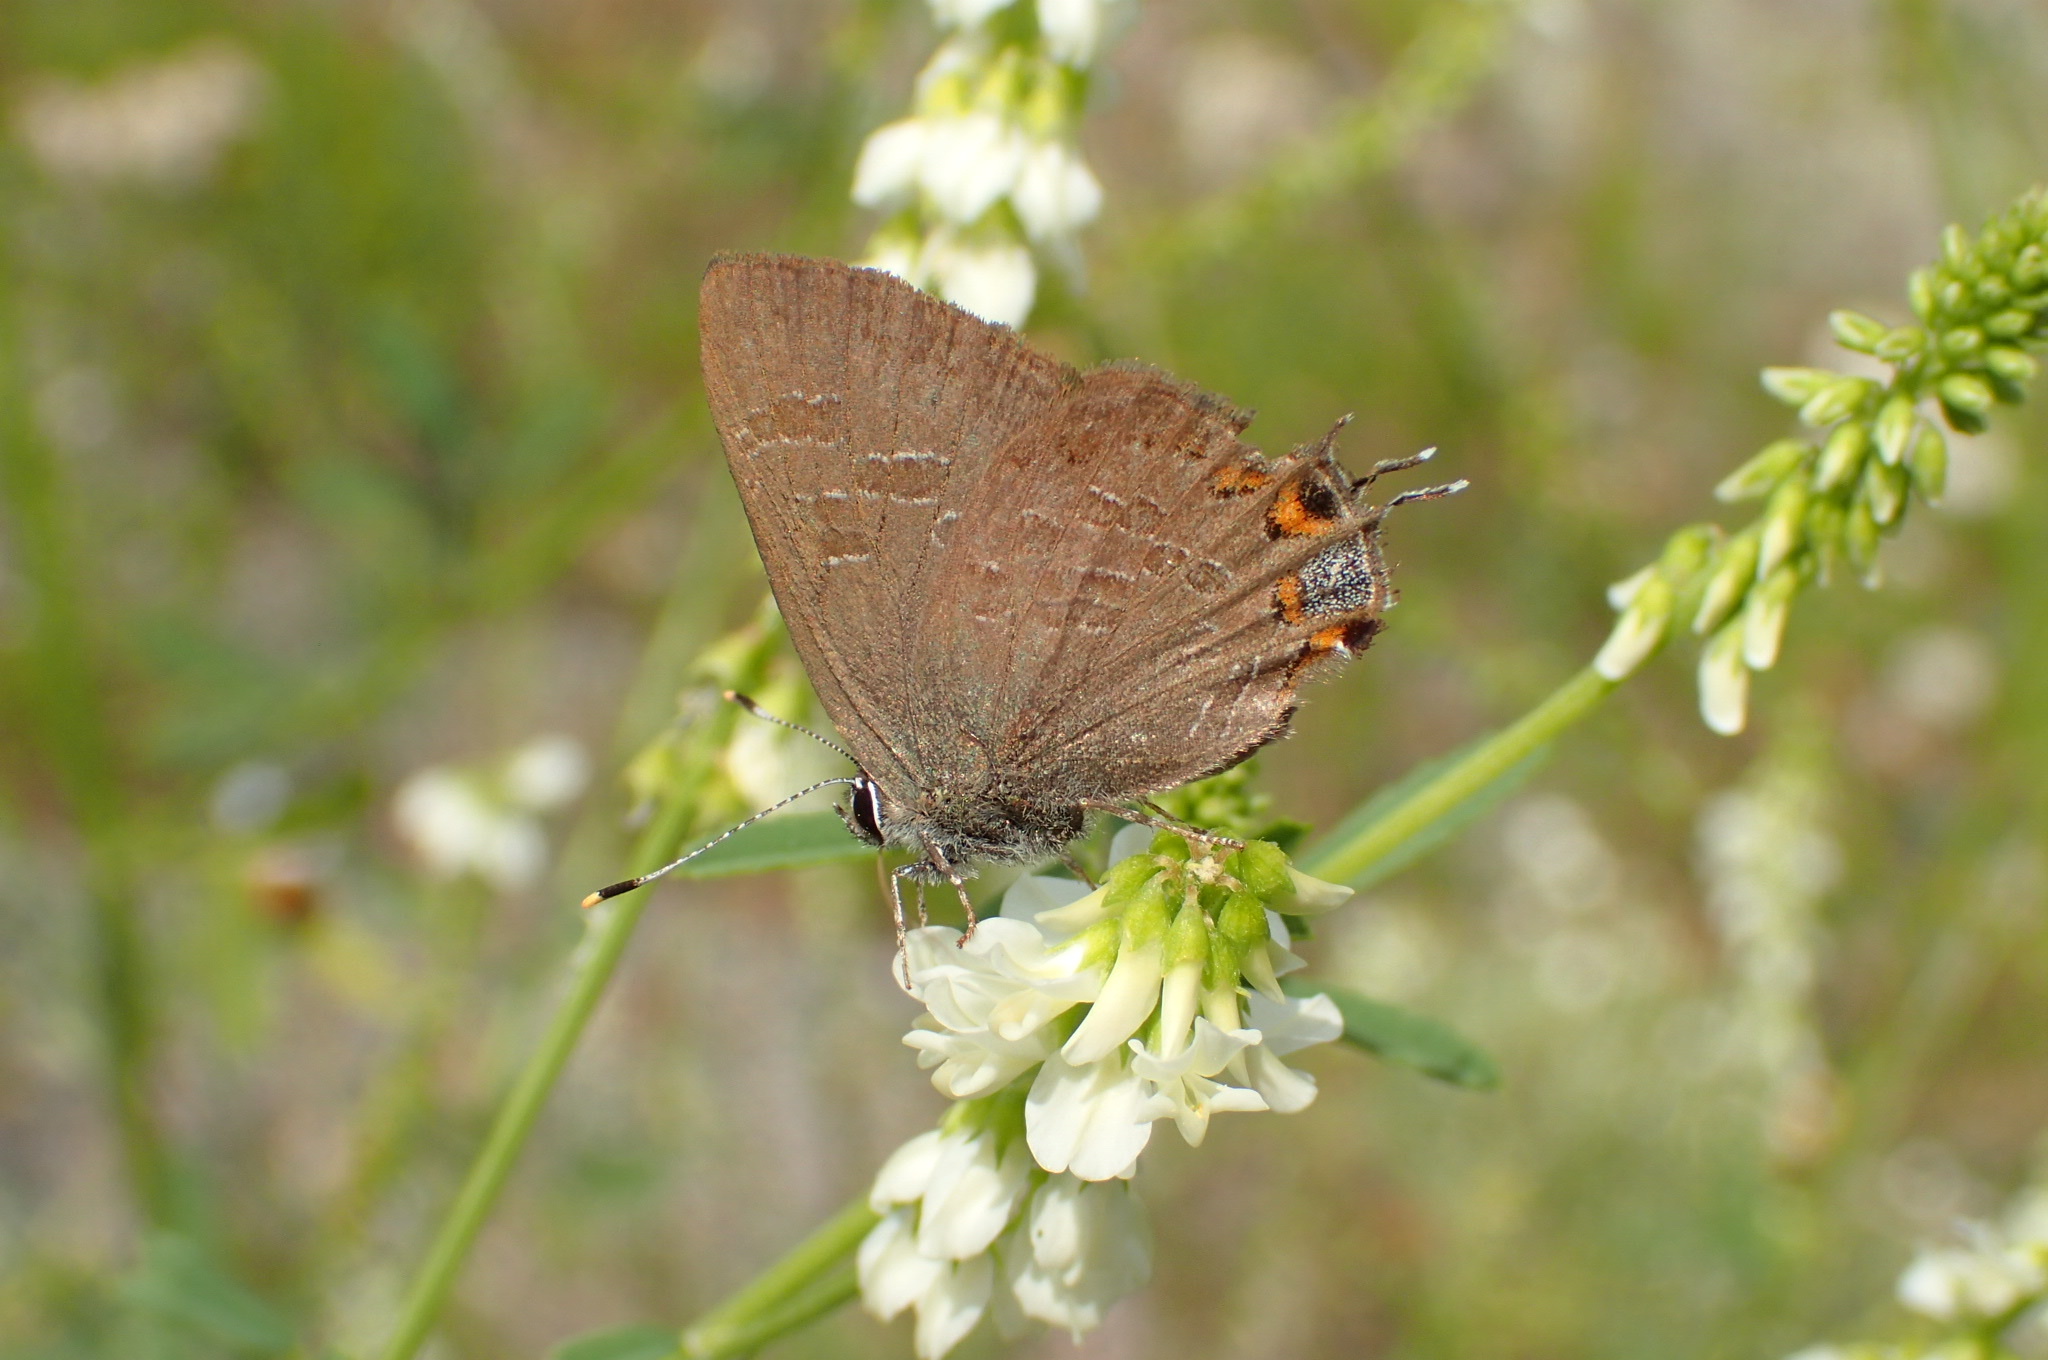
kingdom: Animalia
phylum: Arthropoda
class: Insecta
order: Lepidoptera
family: Lycaenidae
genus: Satyrium
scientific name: Satyrium liparops
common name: Striped hairstreak
